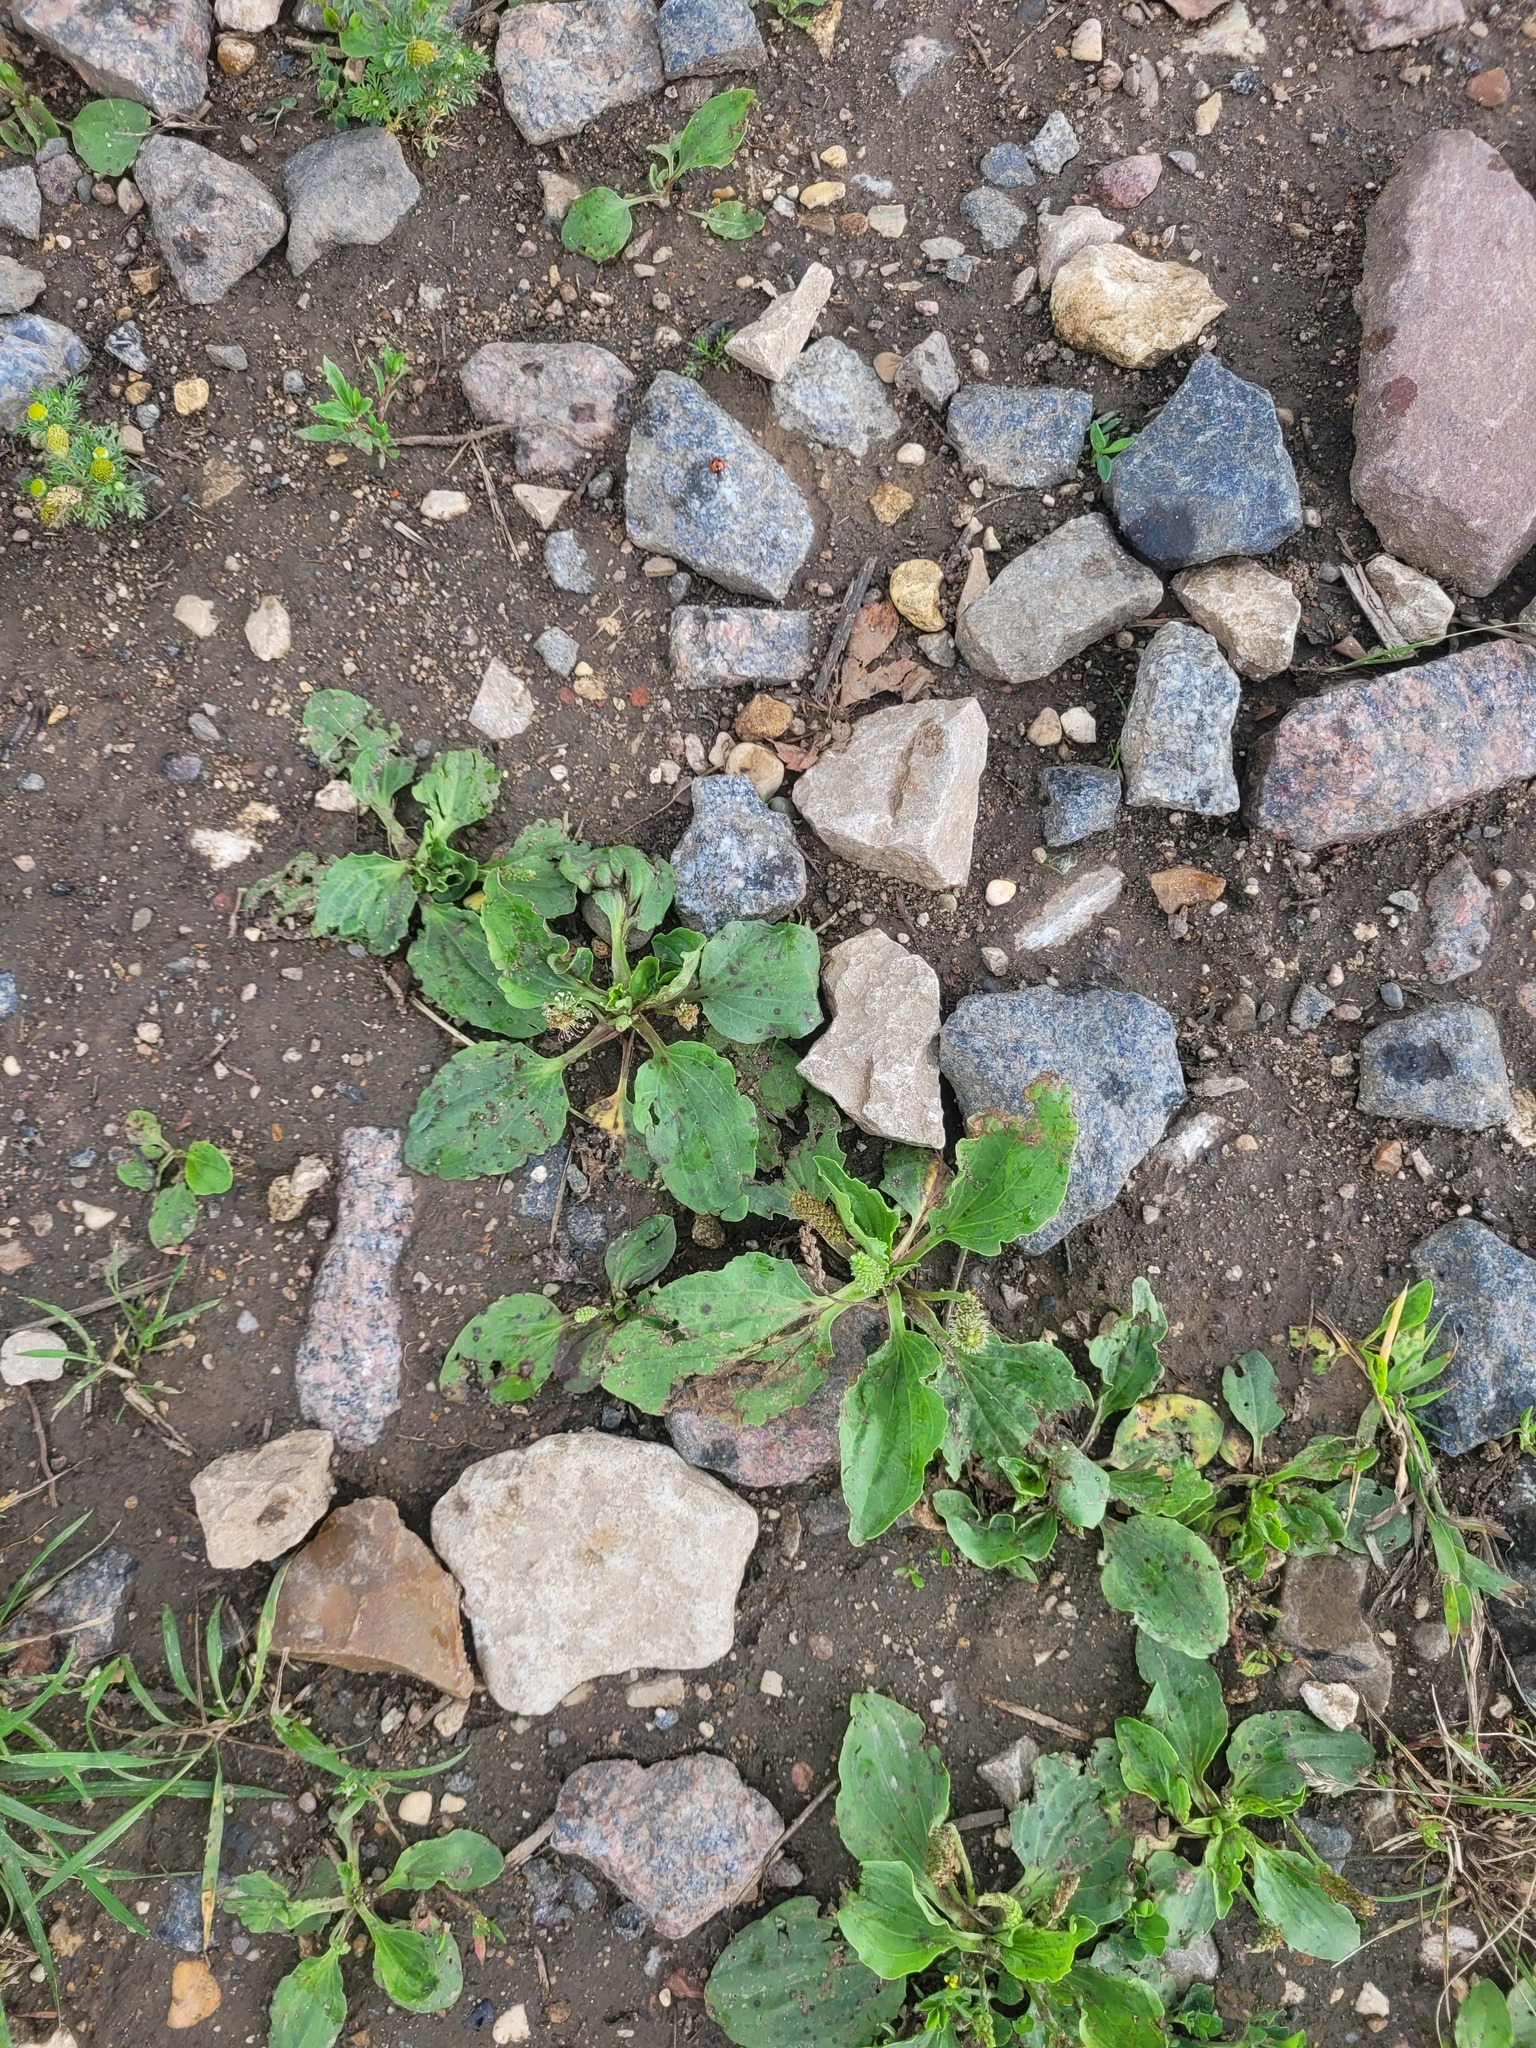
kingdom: Plantae
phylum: Tracheophyta
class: Magnoliopsida
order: Lamiales
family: Plantaginaceae
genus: Plantago
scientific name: Plantago major
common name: Common plantain
